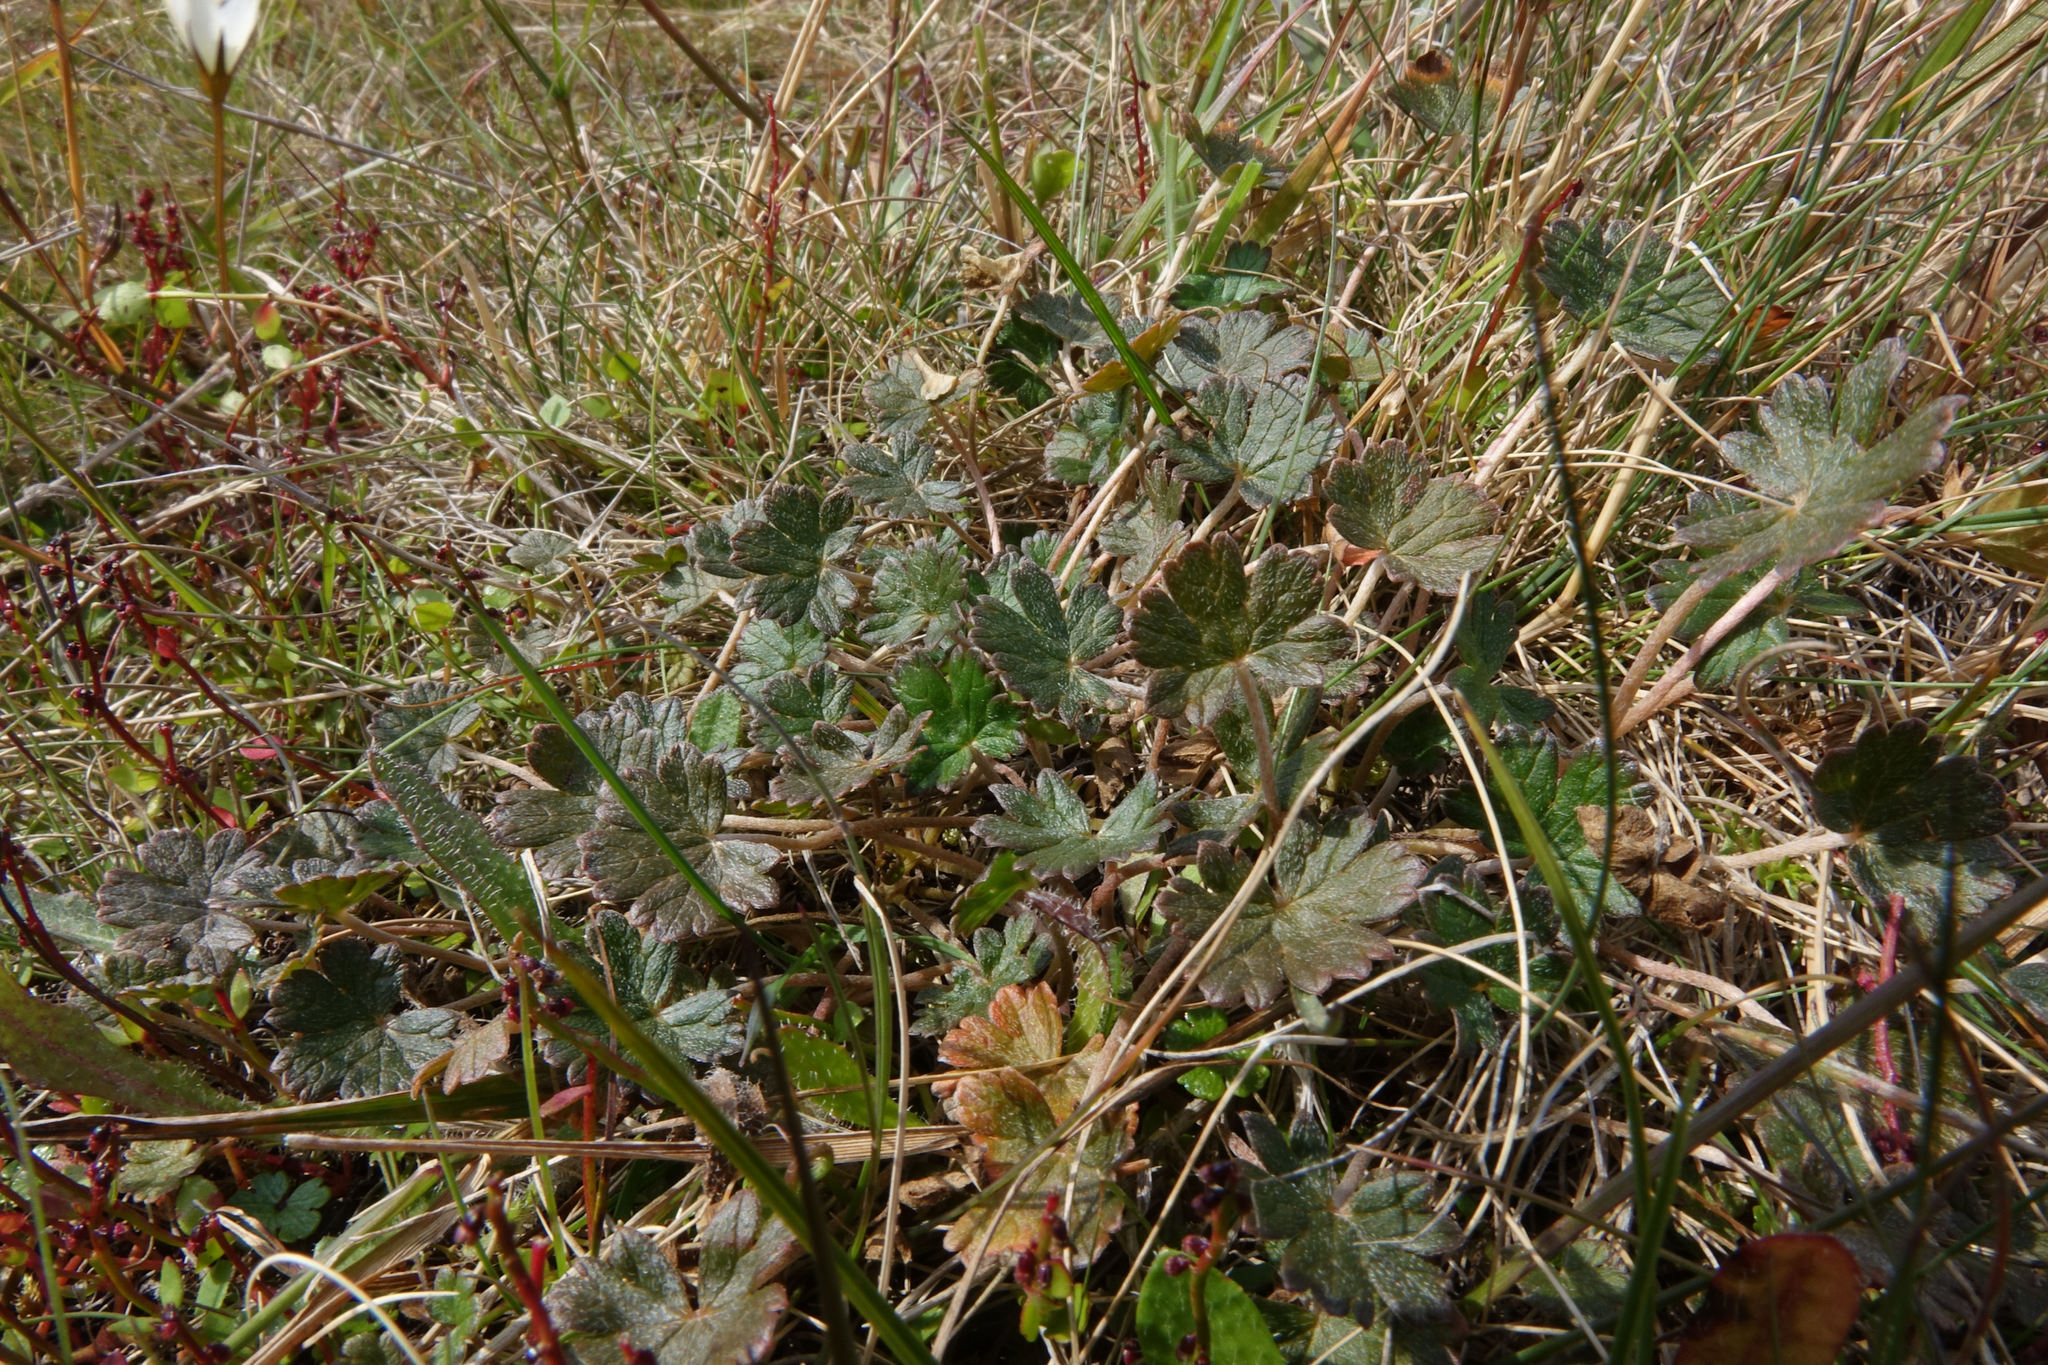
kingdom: Plantae
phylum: Tracheophyta
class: Magnoliopsida
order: Geraniales
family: Geraniaceae
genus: Geranium
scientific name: Geranium brevicaule
